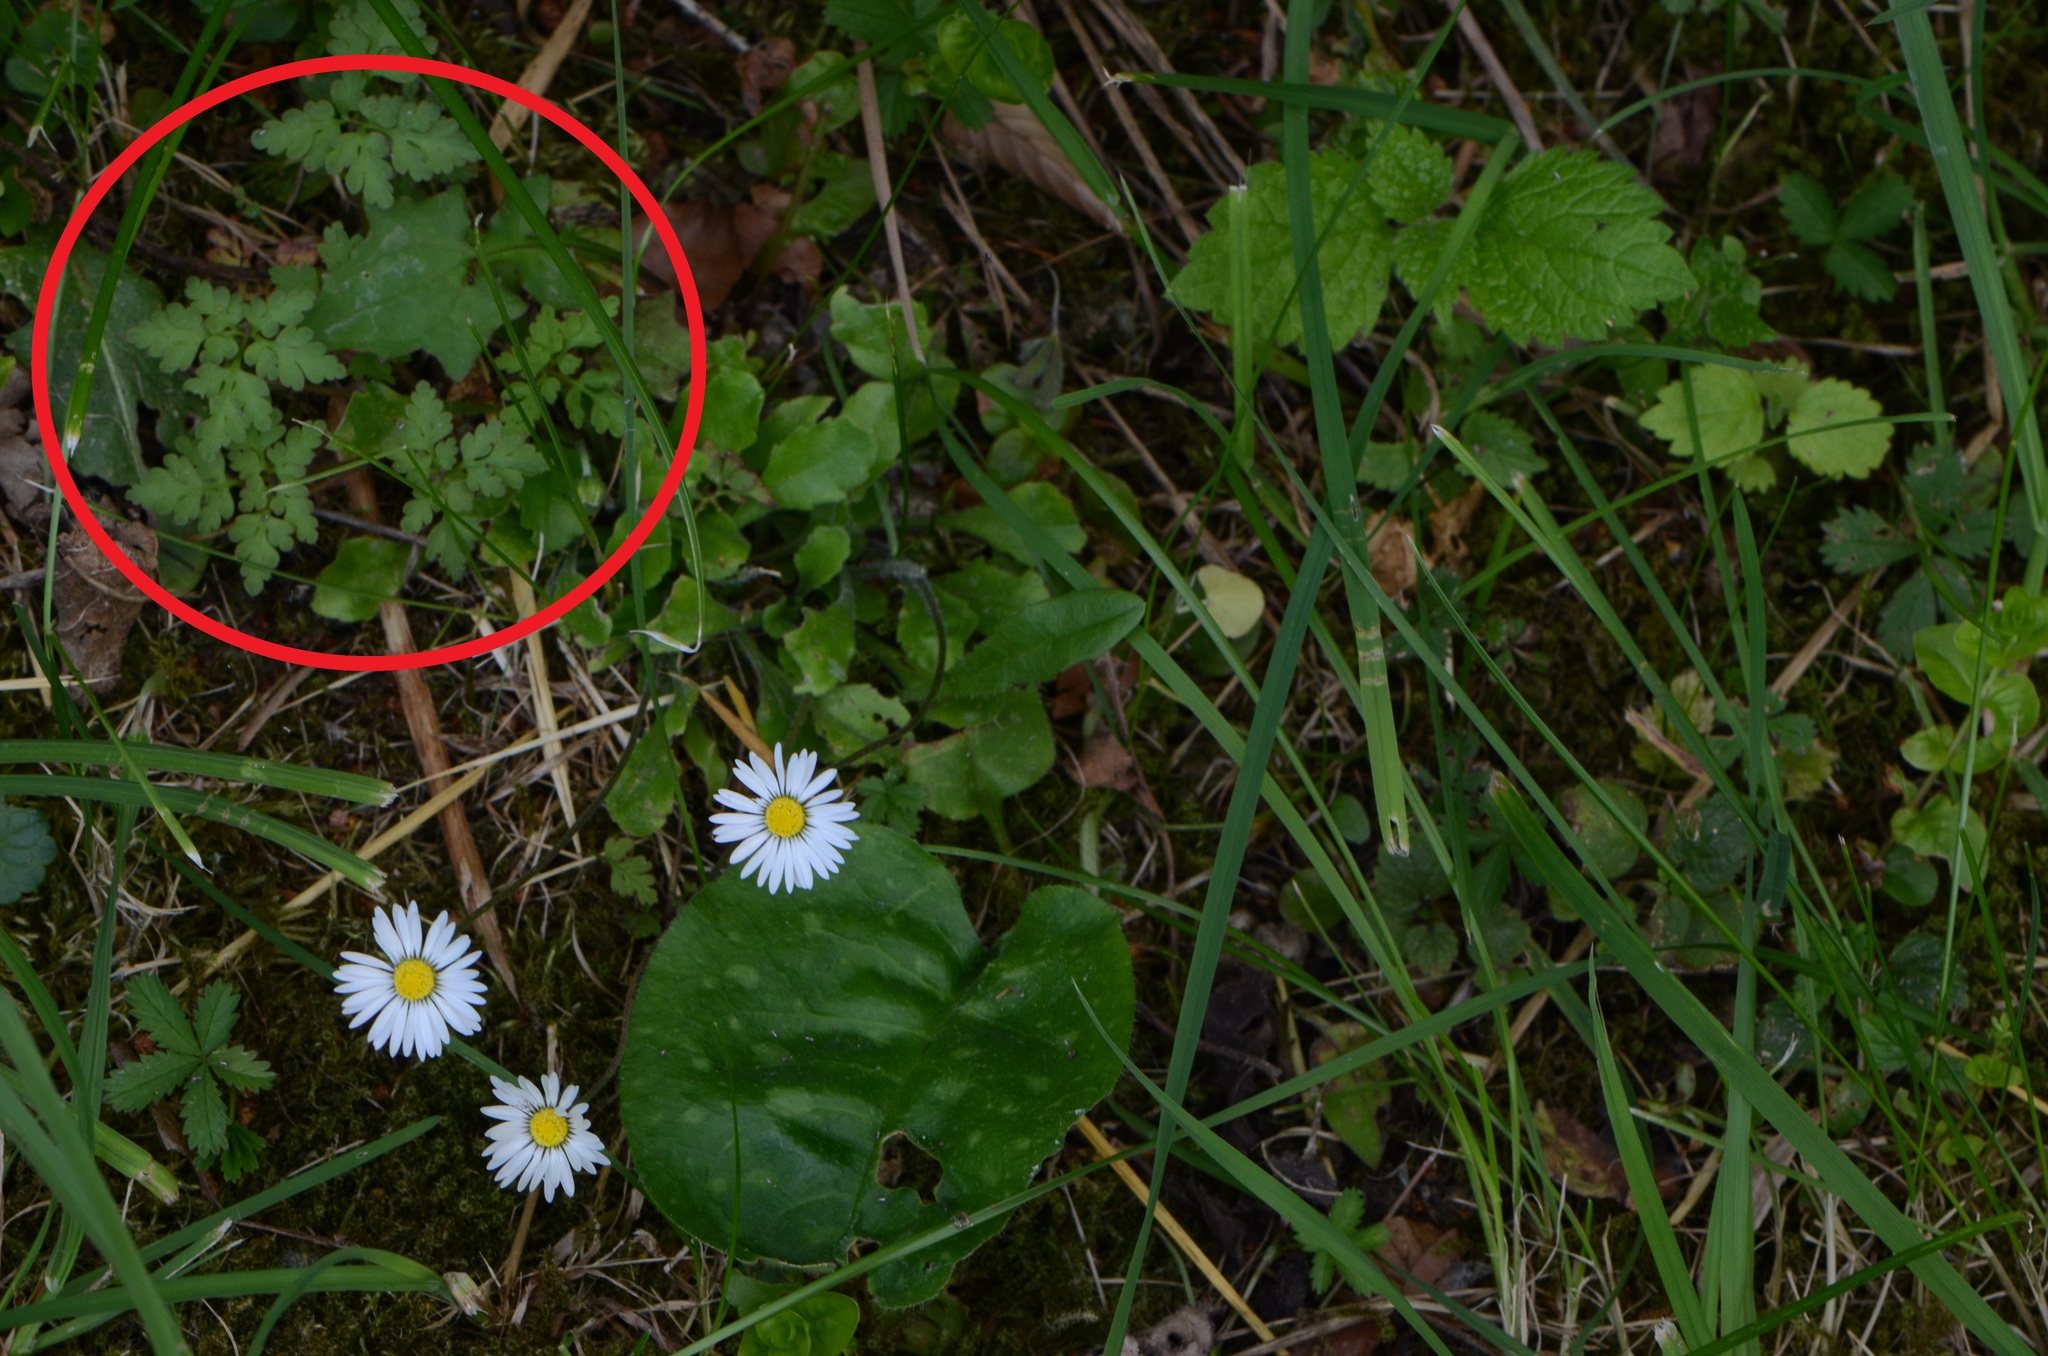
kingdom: Plantae
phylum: Tracheophyta
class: Magnoliopsida
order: Geraniales
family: Geraniaceae
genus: Geranium
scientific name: Geranium robertianum
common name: Herb-robert
